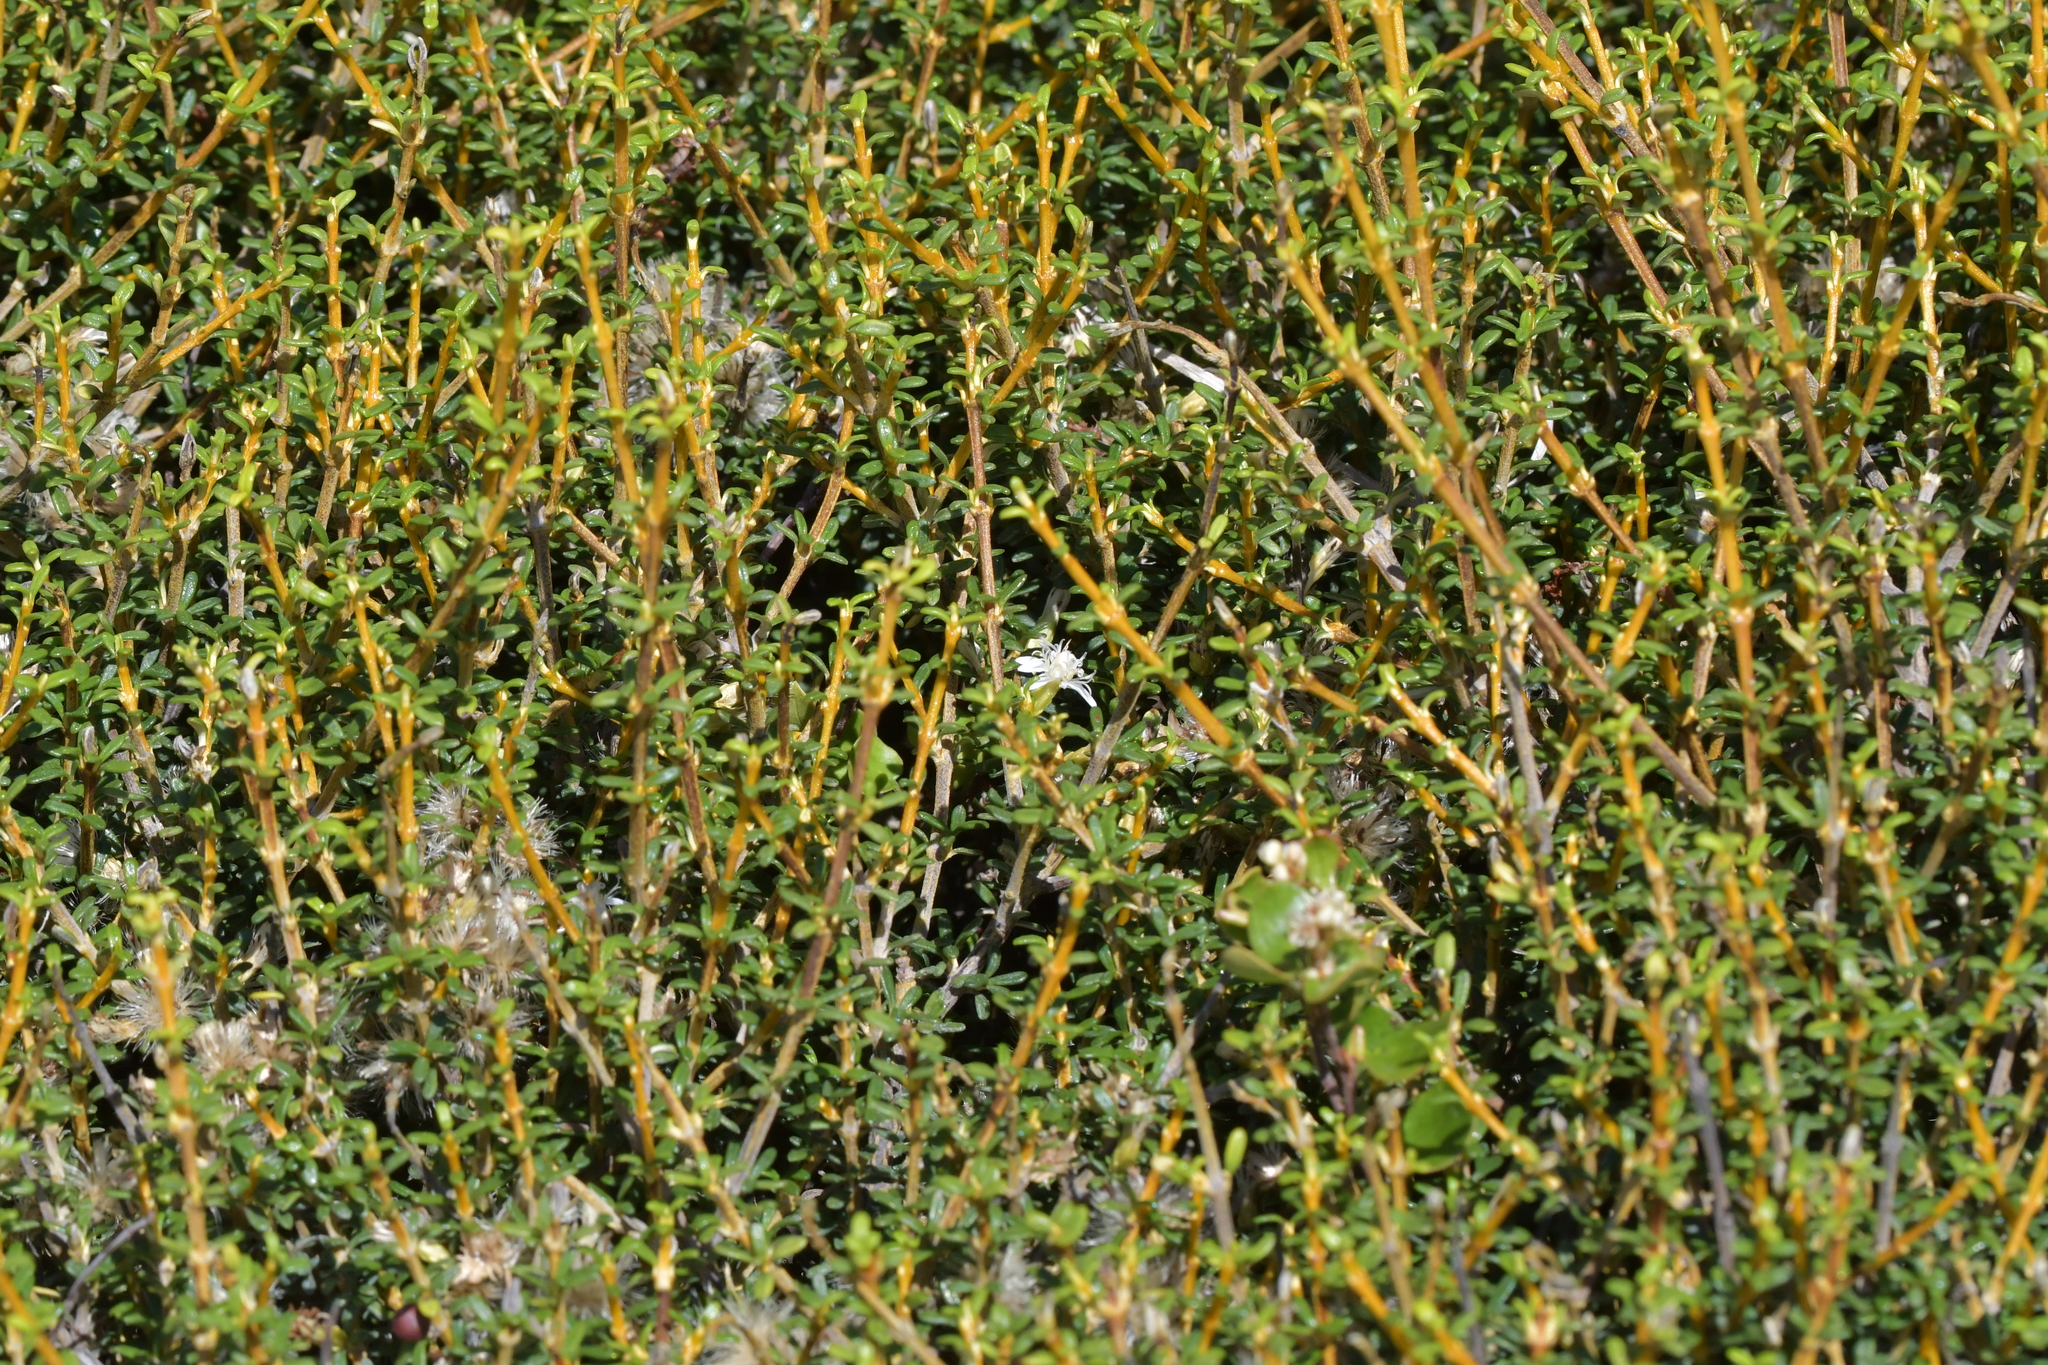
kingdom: Plantae
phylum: Tracheophyta
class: Magnoliopsida
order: Asterales
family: Asteraceae
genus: Olearia
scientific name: Olearia solandri
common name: Coastal daisybush
